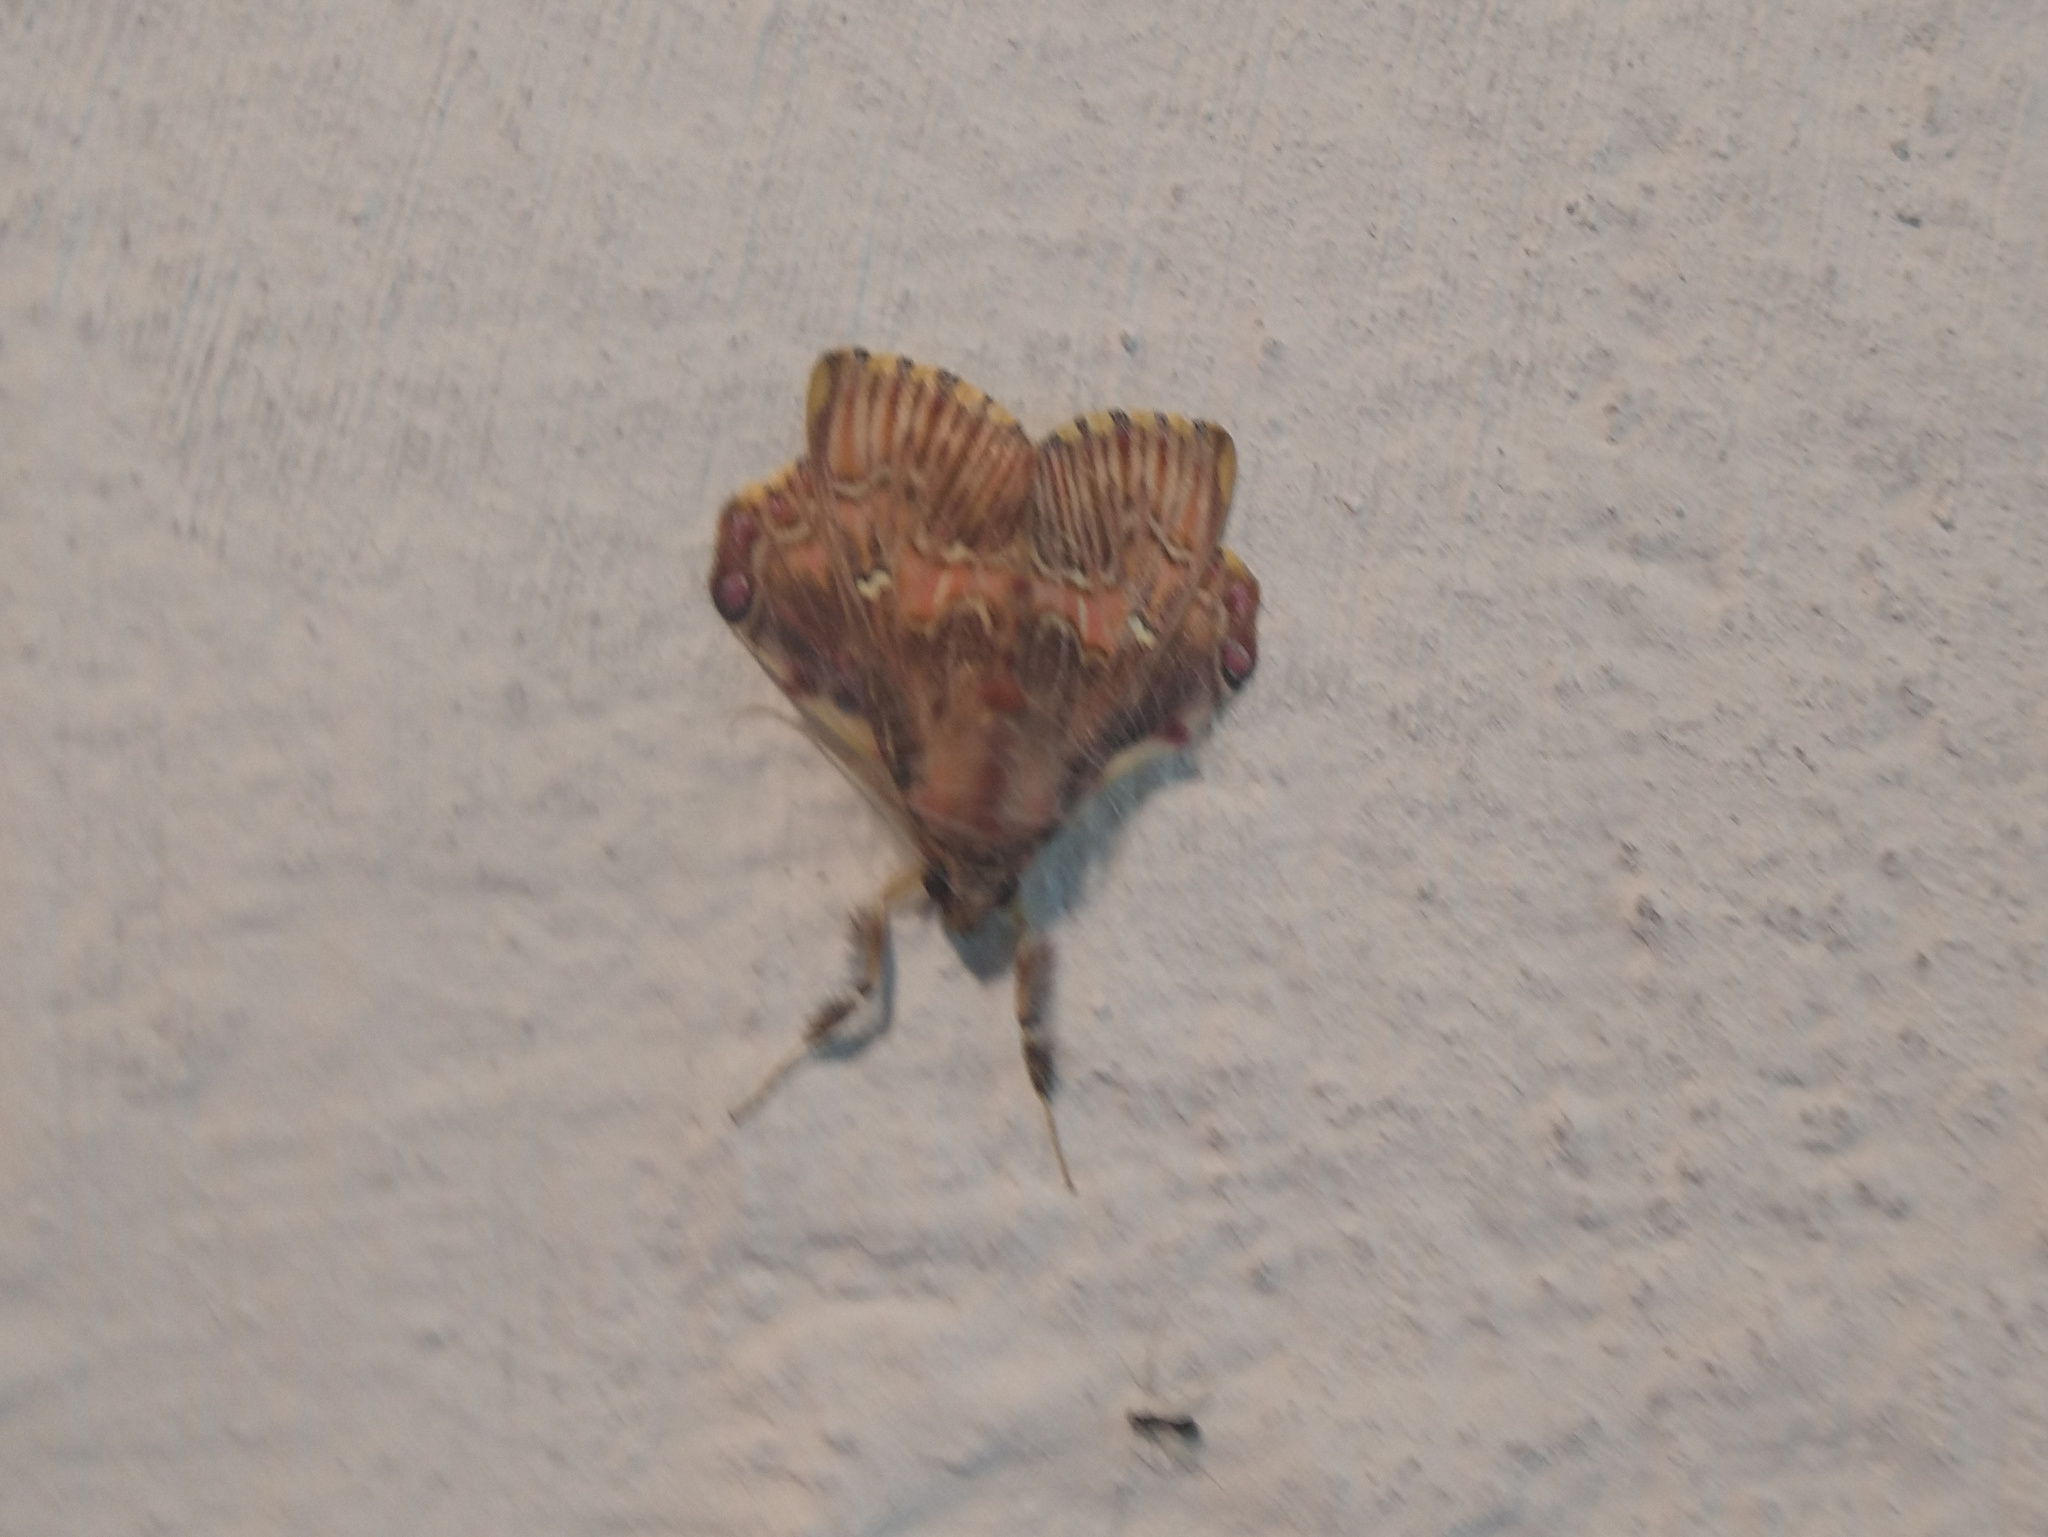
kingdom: Animalia
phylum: Arthropoda
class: Insecta
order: Lepidoptera
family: Erebidae
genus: Sosxetra
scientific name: Sosxetra grata
